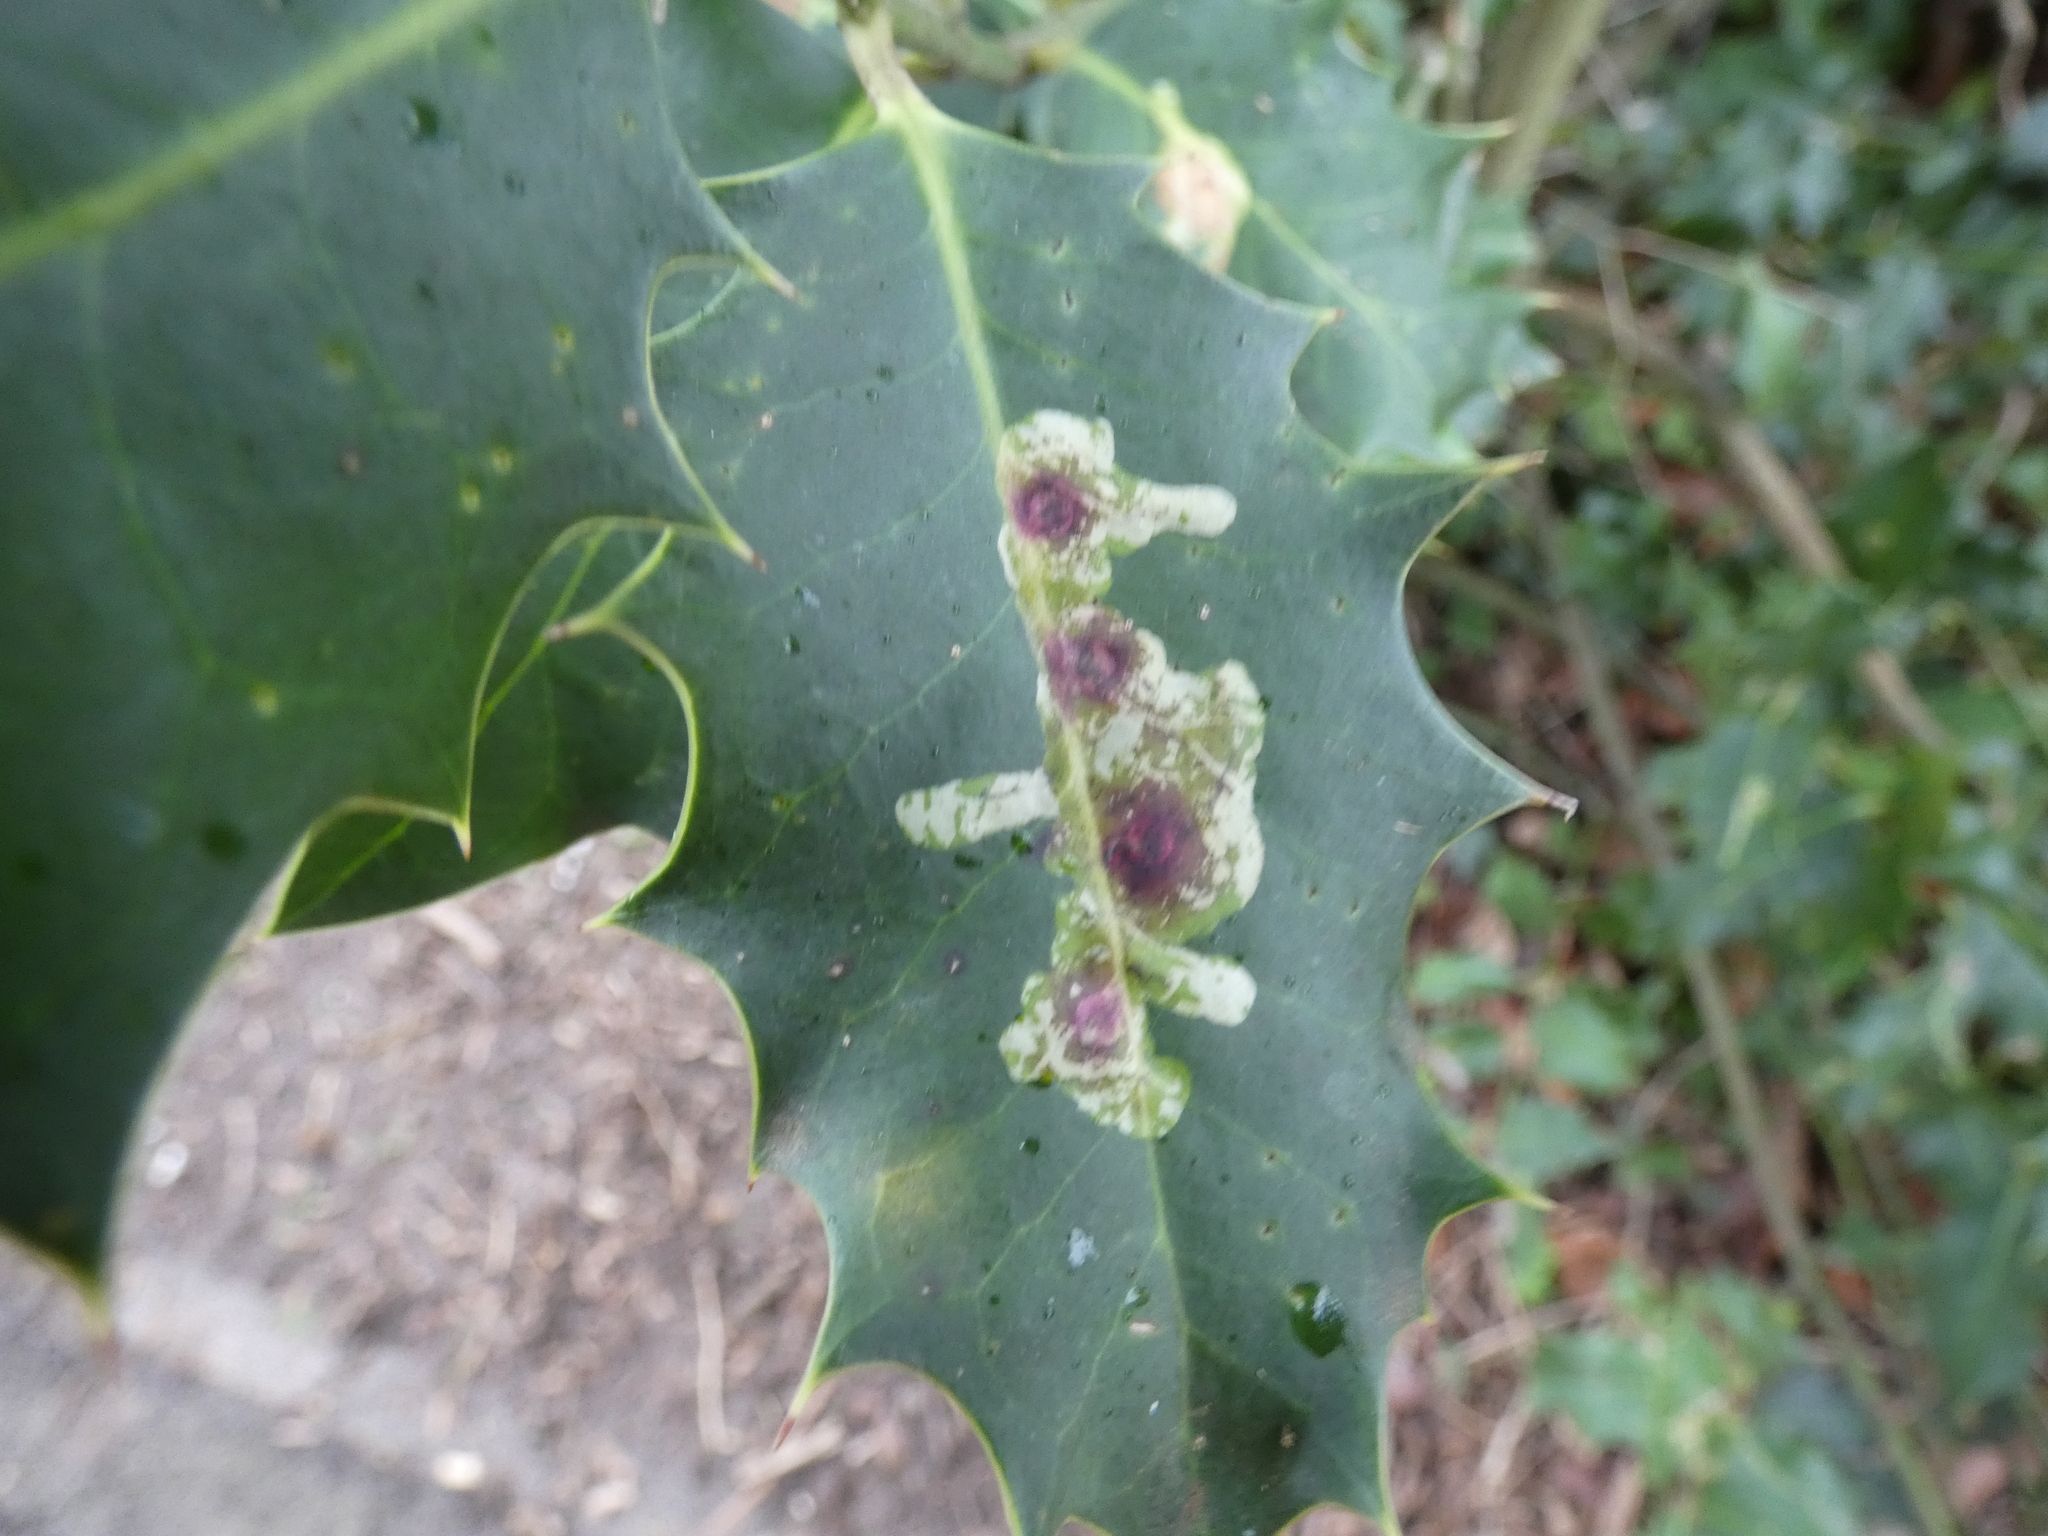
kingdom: Animalia
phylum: Arthropoda
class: Insecta
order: Diptera
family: Agromyzidae
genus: Phytomyza
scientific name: Phytomyza ilicis
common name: Holly leafminer
